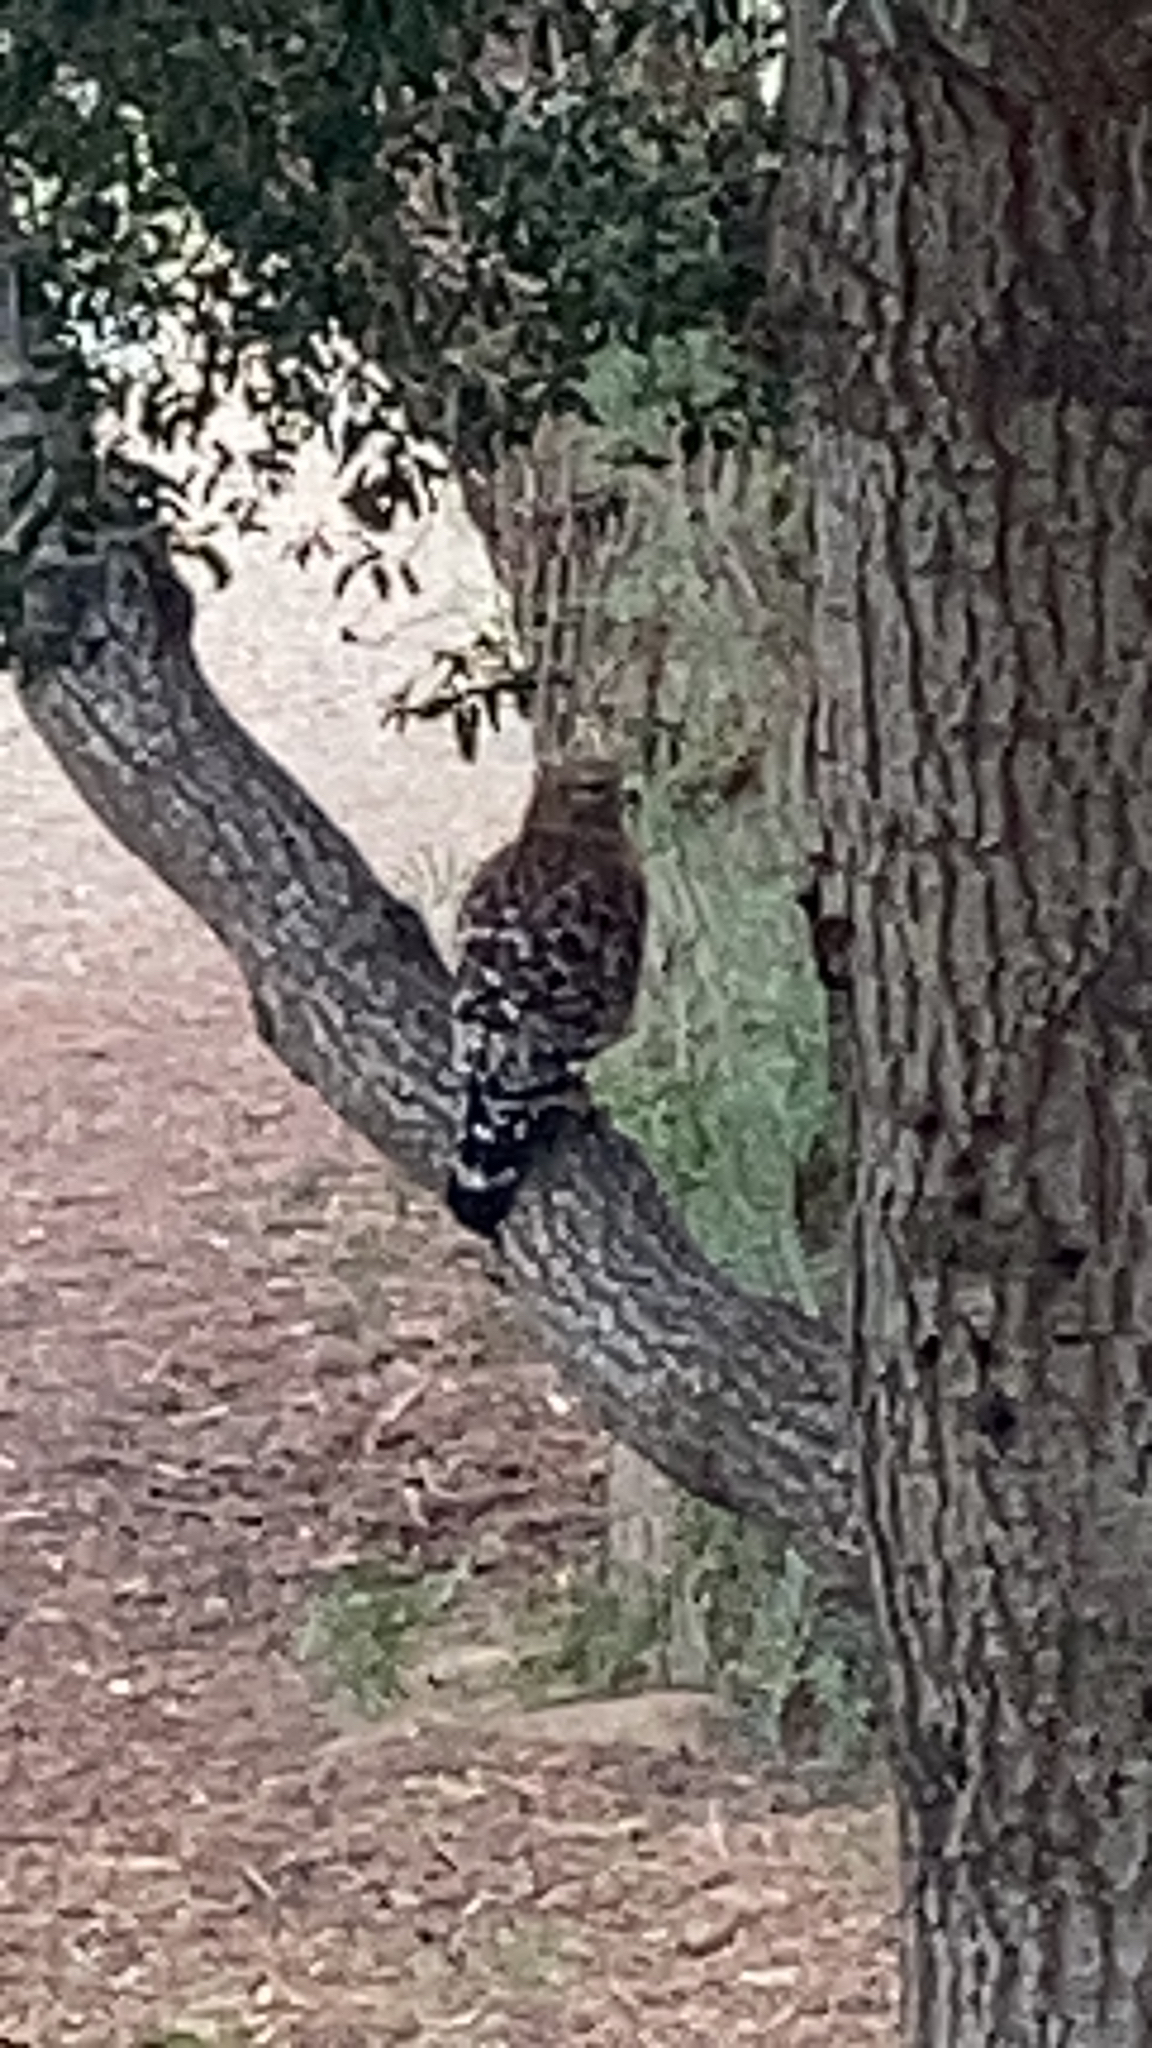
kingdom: Animalia
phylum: Chordata
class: Aves
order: Accipitriformes
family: Accipitridae
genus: Buteo
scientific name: Buteo lineatus
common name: Red-shouldered hawk
